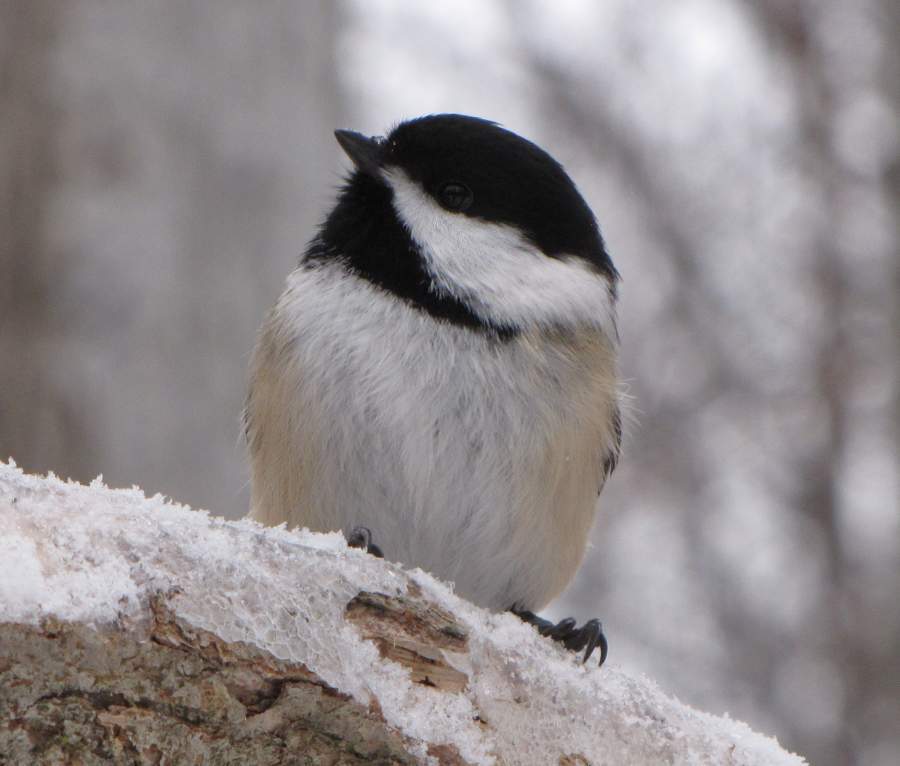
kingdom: Animalia
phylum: Chordata
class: Aves
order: Passeriformes
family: Paridae
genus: Poecile
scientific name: Poecile atricapillus
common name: Black-capped chickadee
